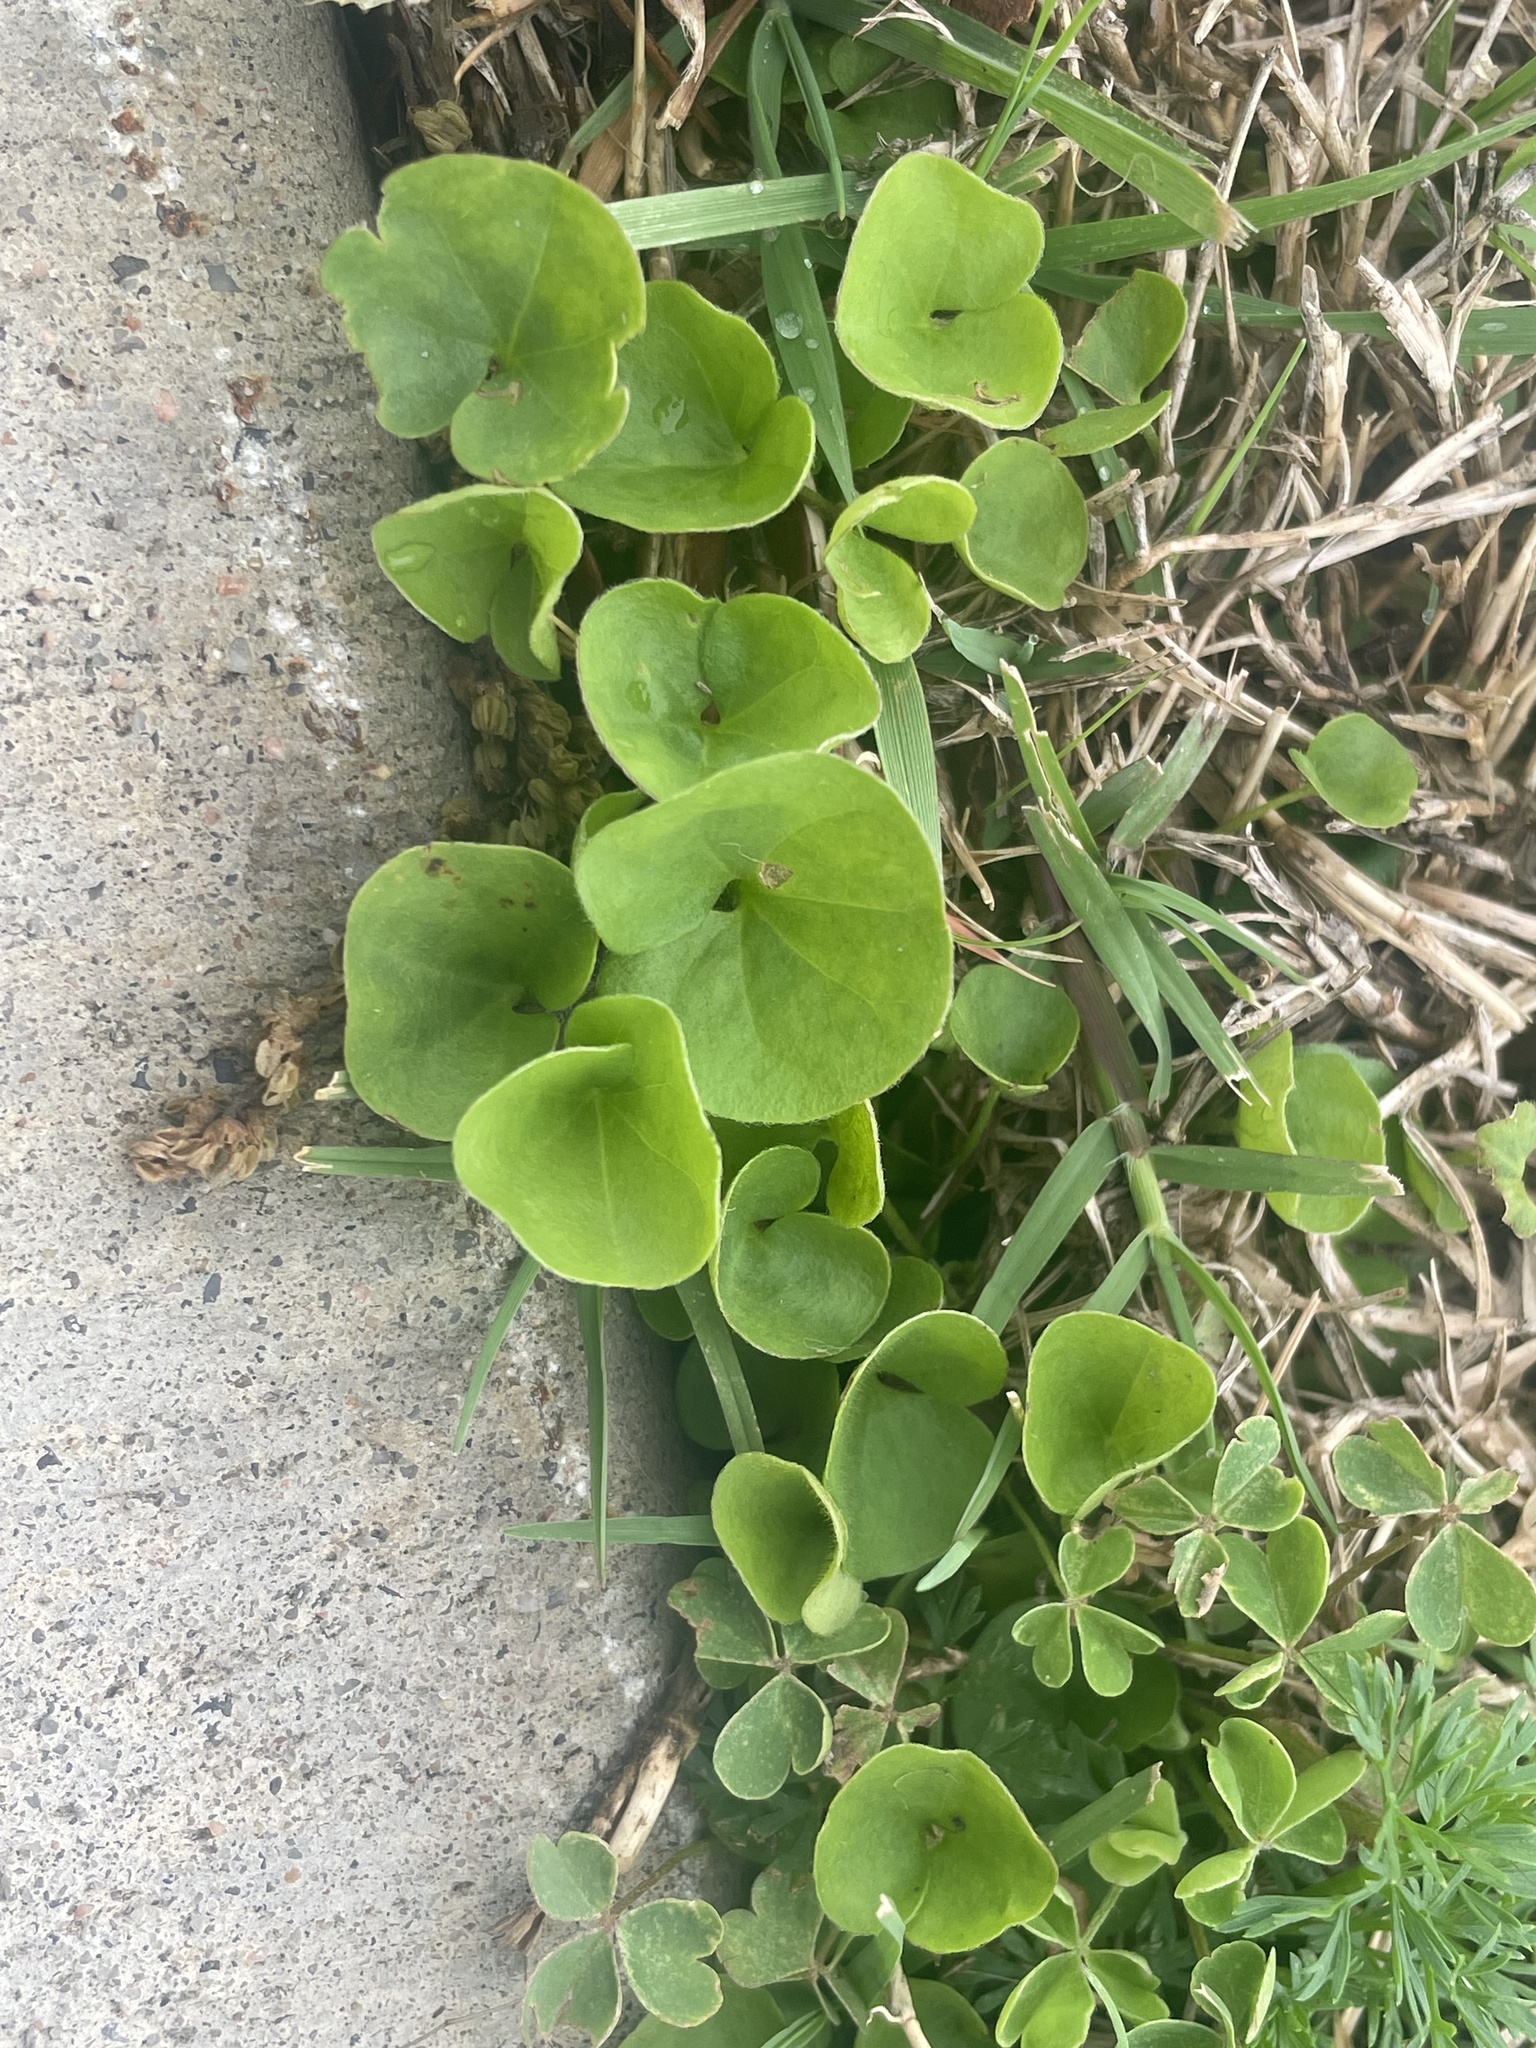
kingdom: Plantae
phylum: Tracheophyta
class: Magnoliopsida
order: Solanales
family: Convolvulaceae
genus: Dichondra
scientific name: Dichondra carolinensis
